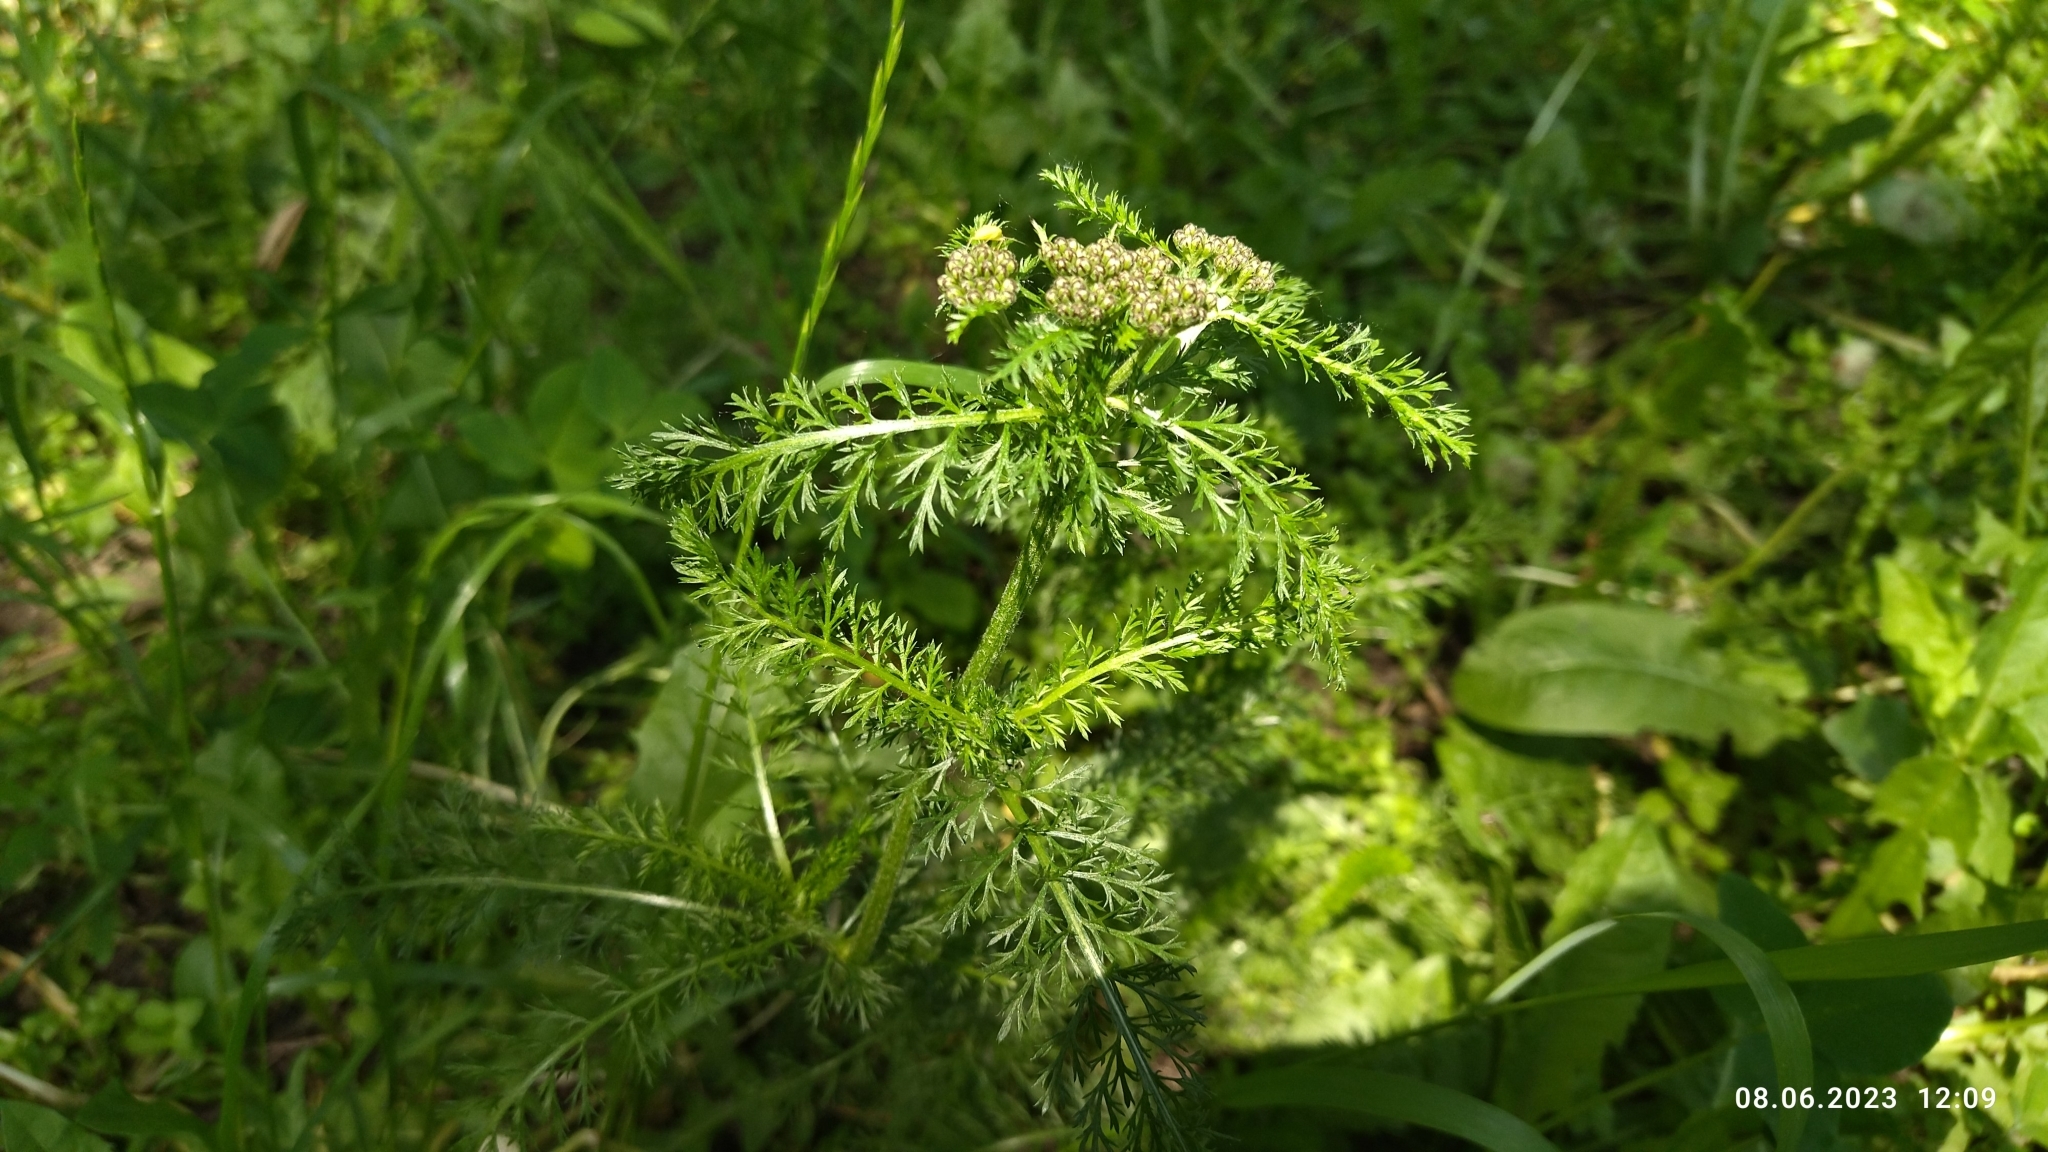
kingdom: Plantae
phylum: Tracheophyta
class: Magnoliopsida
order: Asterales
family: Asteraceae
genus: Achillea
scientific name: Achillea millefolium
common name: Yarrow
